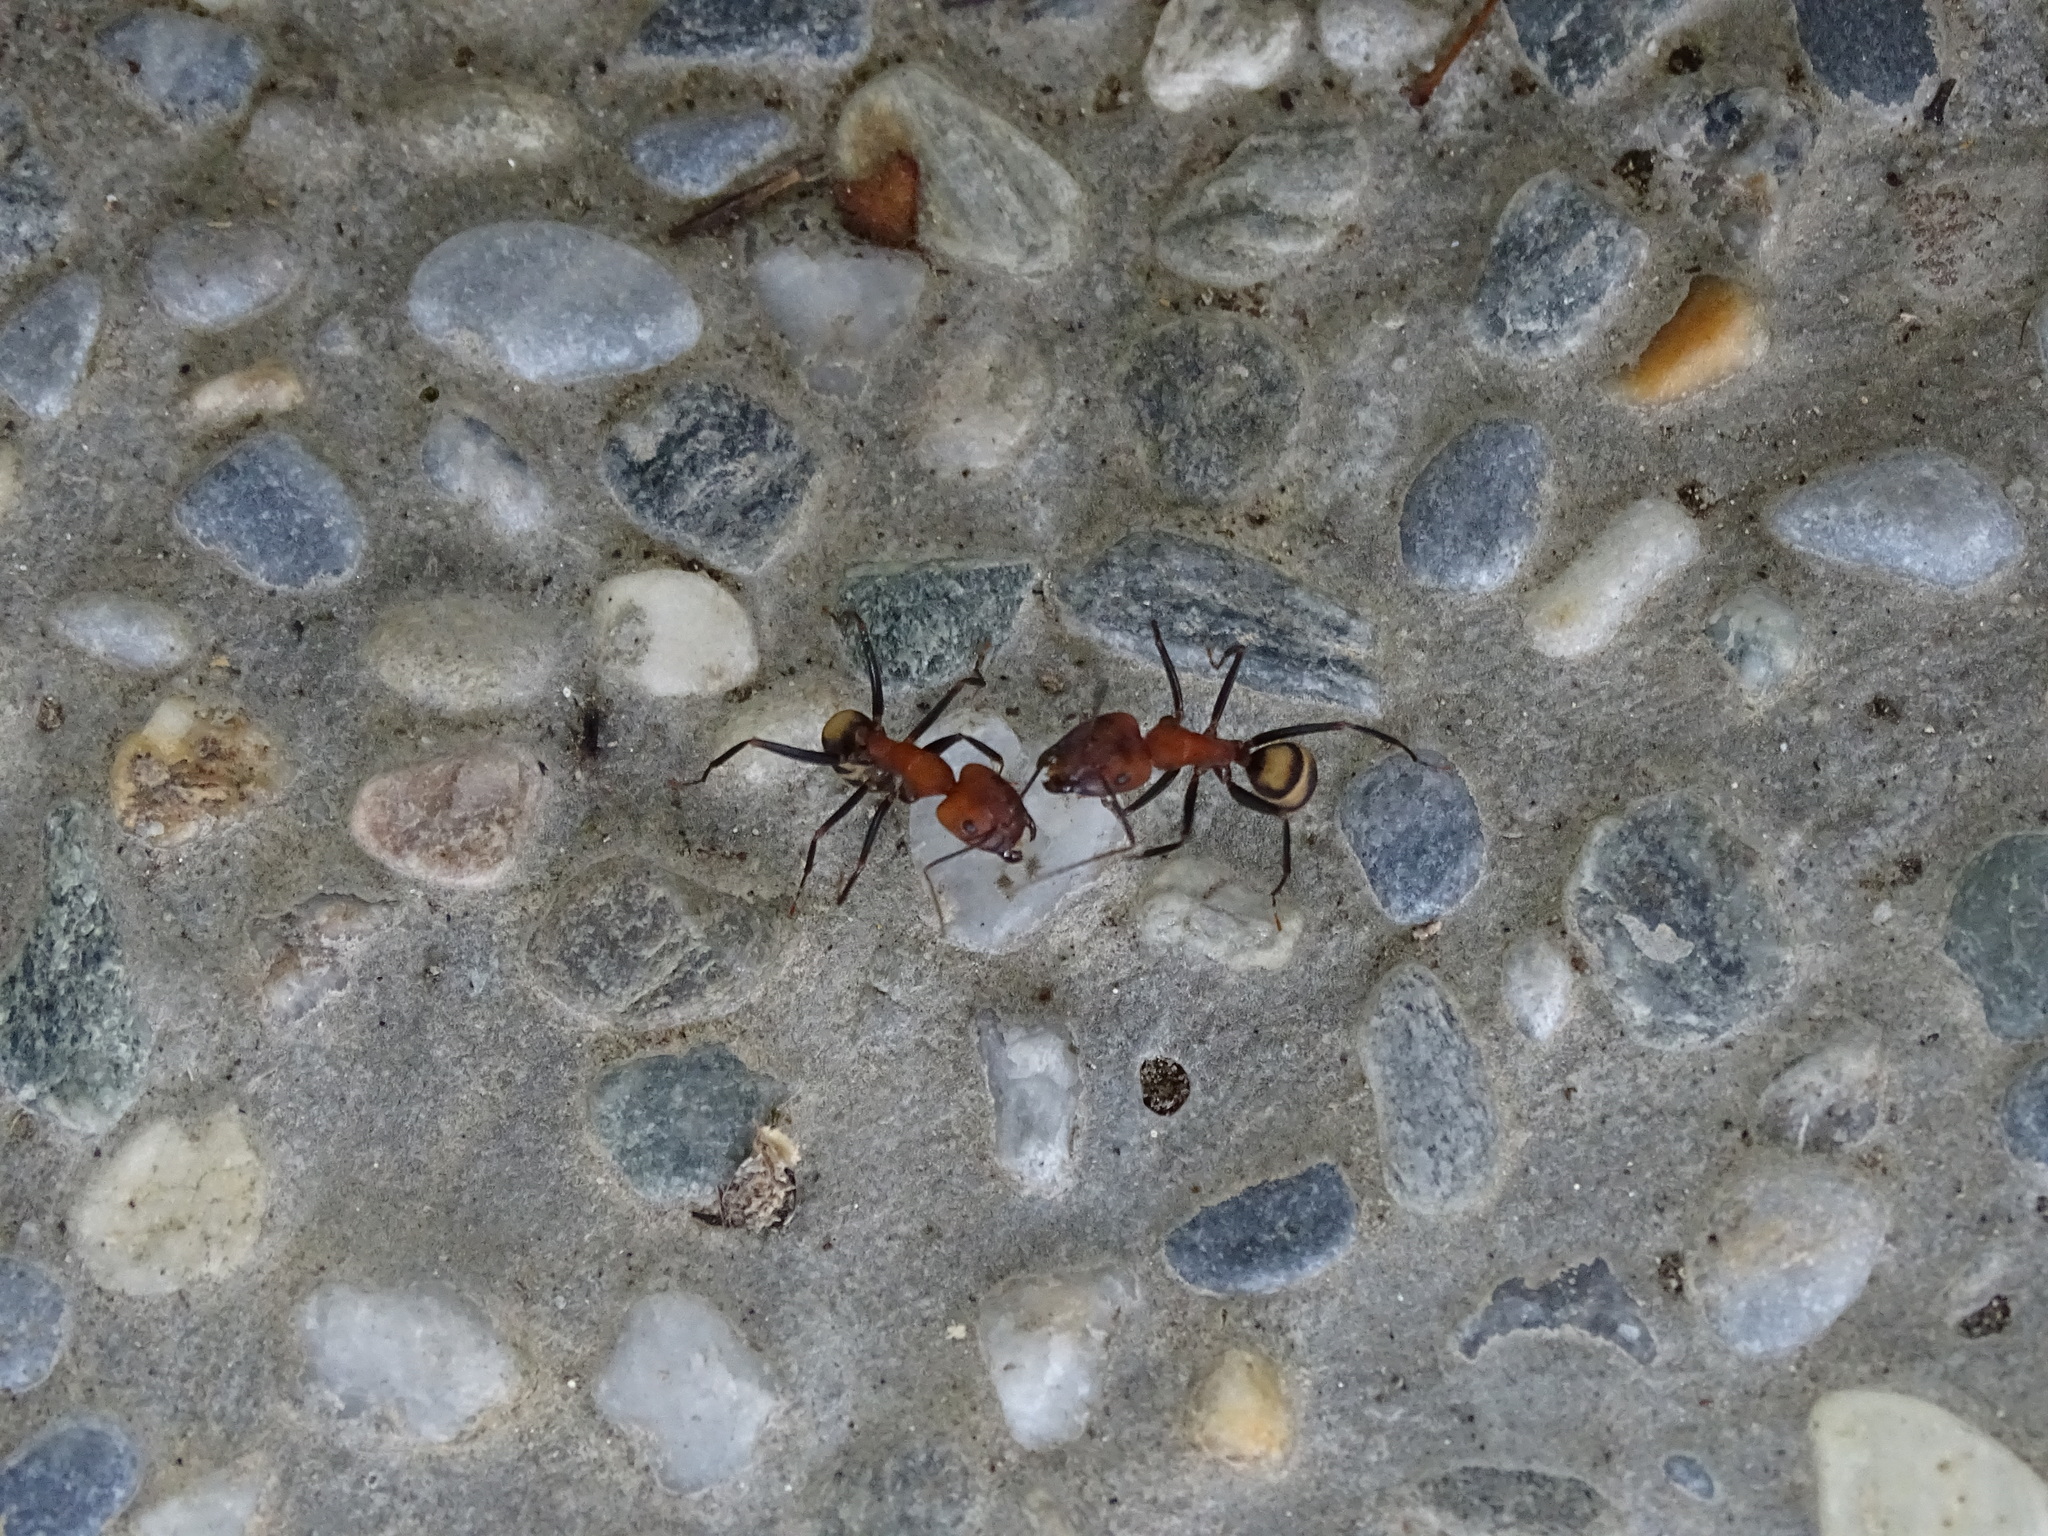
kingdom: Animalia
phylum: Arthropoda
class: Insecta
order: Hymenoptera
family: Formicidae
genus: Camponotus
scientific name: Camponotus habereri
